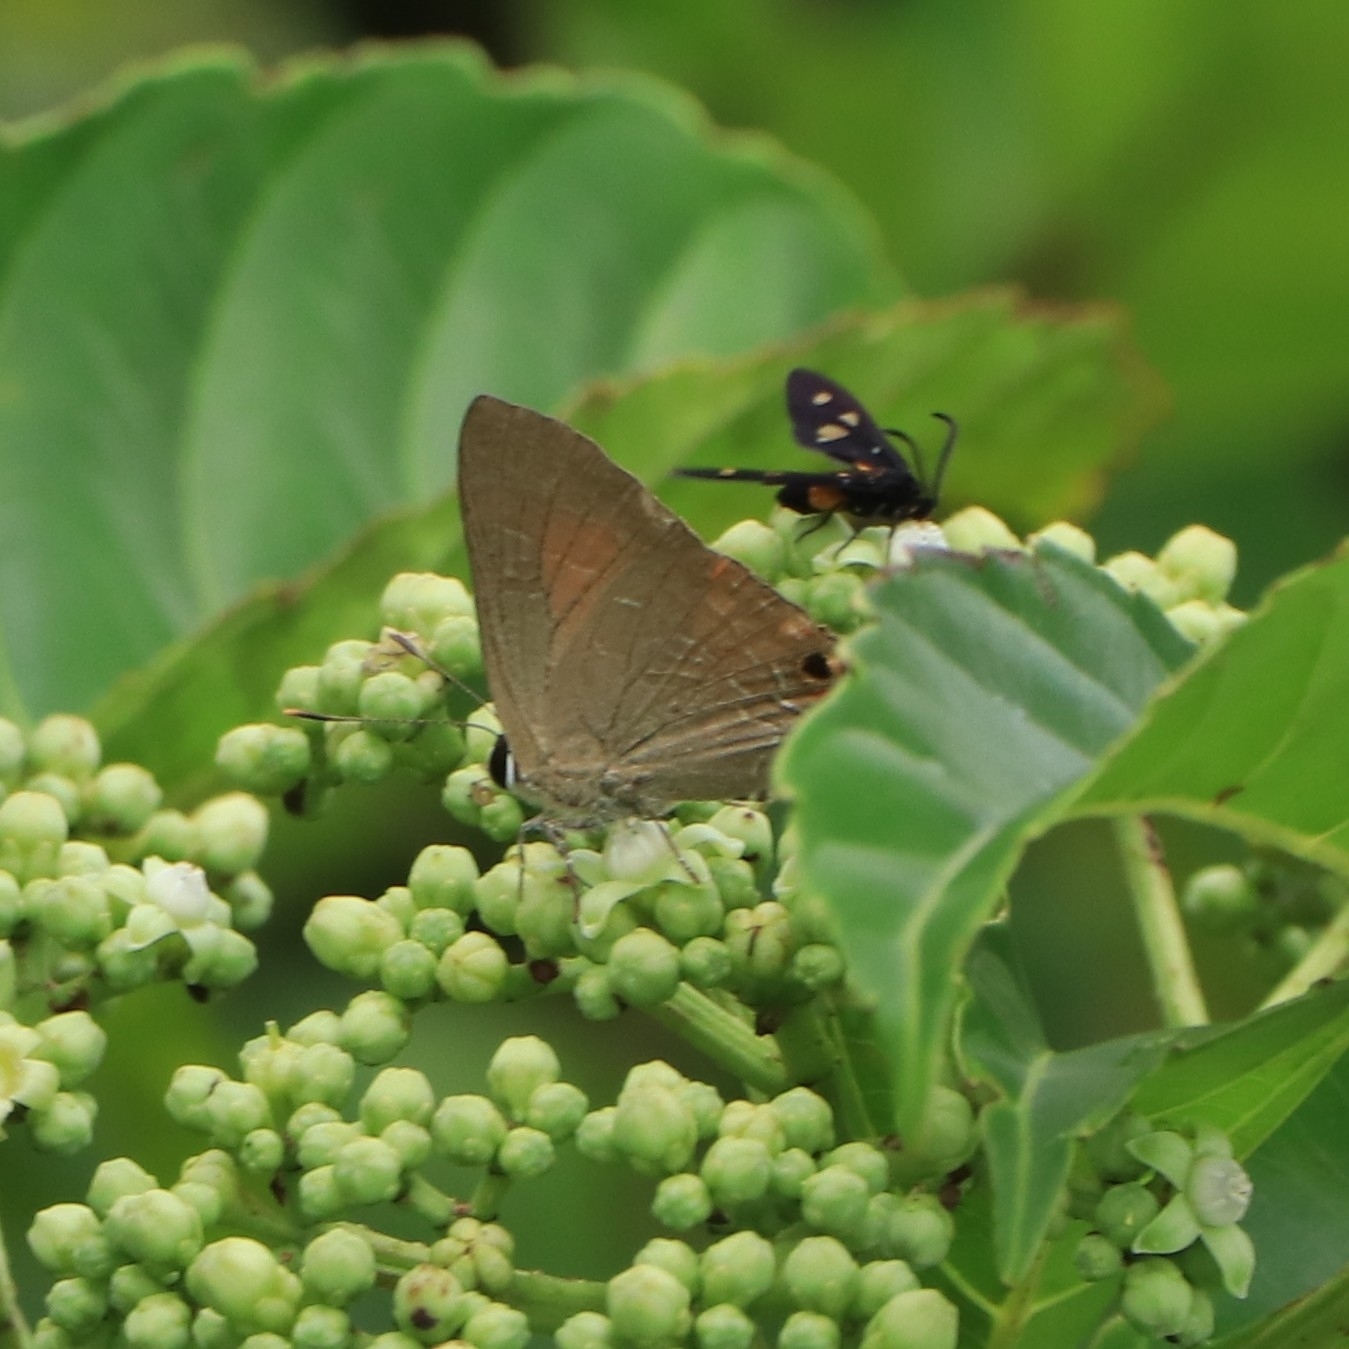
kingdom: Animalia
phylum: Arthropoda
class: Insecta
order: Lepidoptera
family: Lycaenidae
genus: Deudorix
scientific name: Deudorix epijarbas
